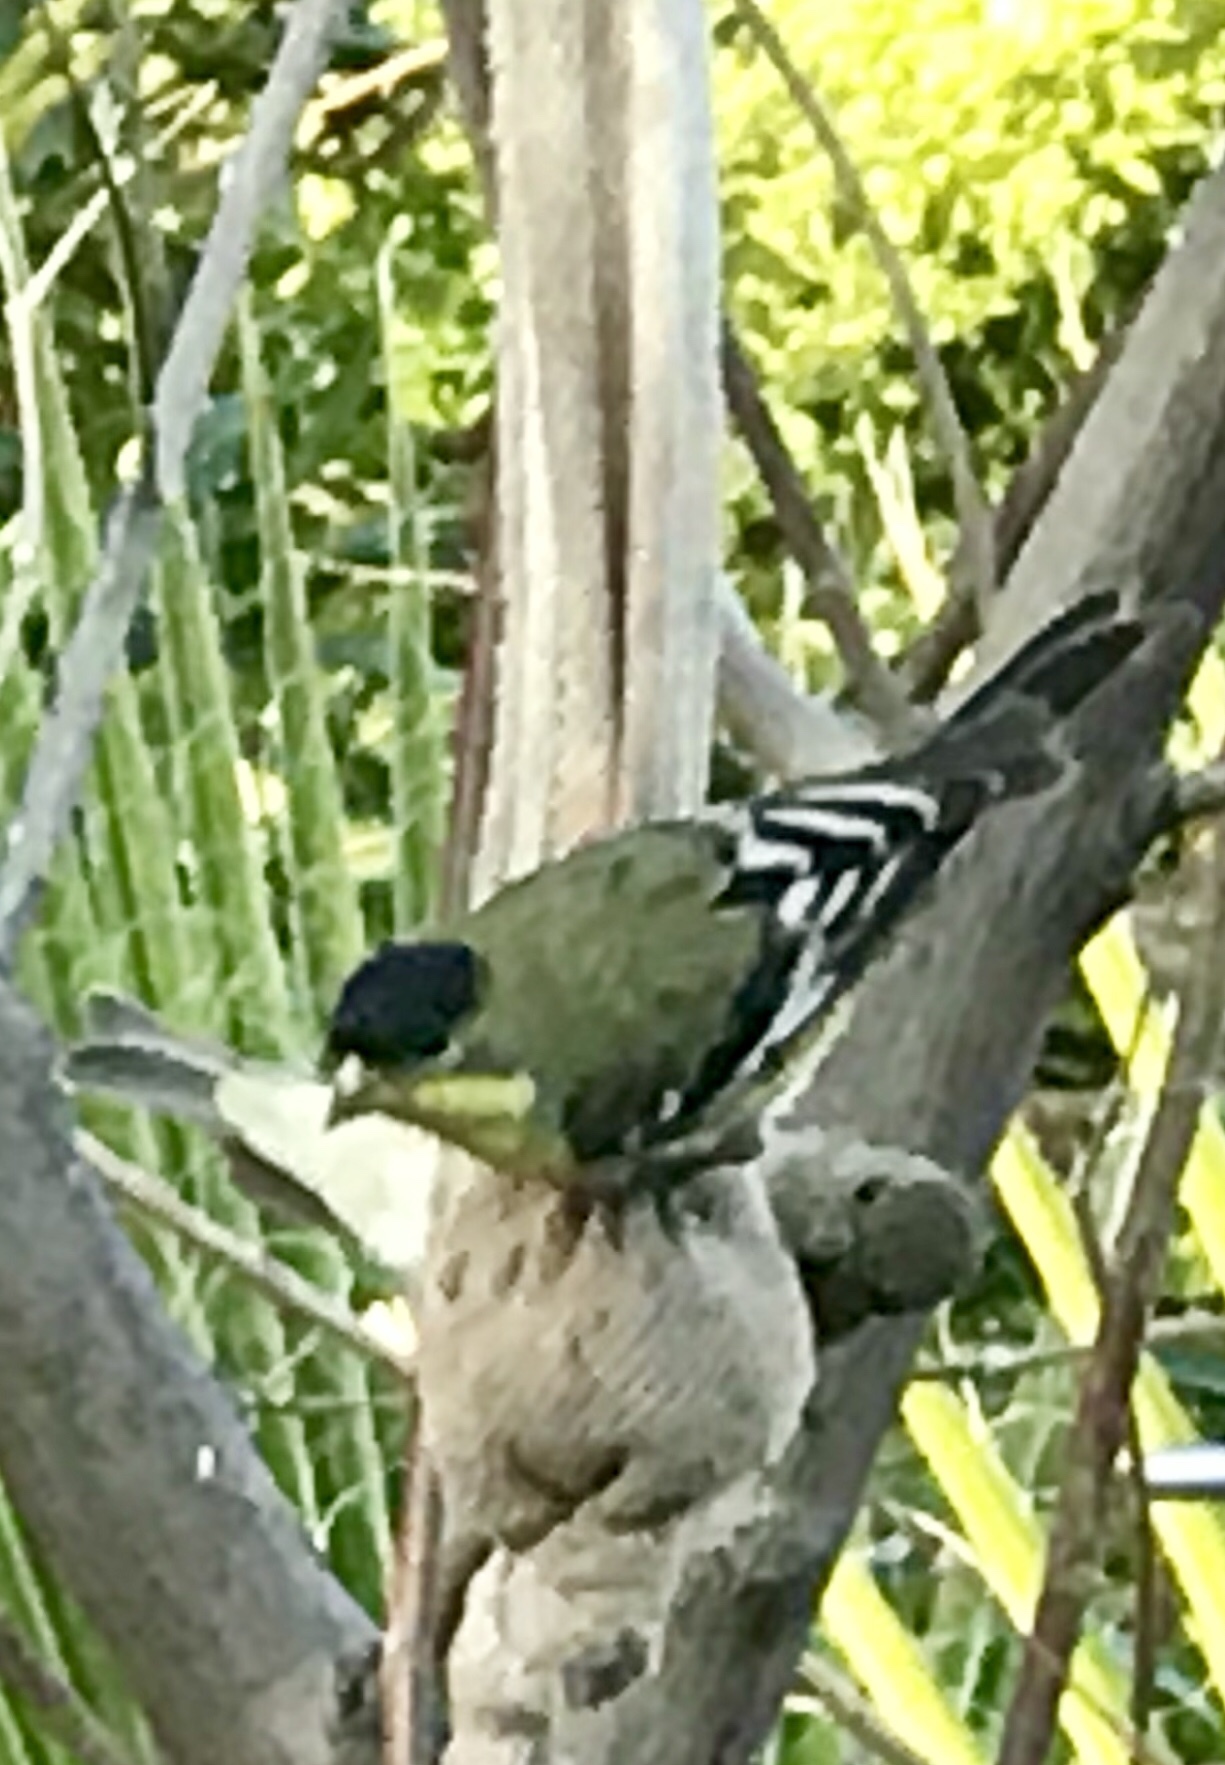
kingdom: Animalia
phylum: Chordata
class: Aves
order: Passeriformes
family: Fringillidae
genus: Spinus
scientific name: Spinus psaltria
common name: Lesser goldfinch
